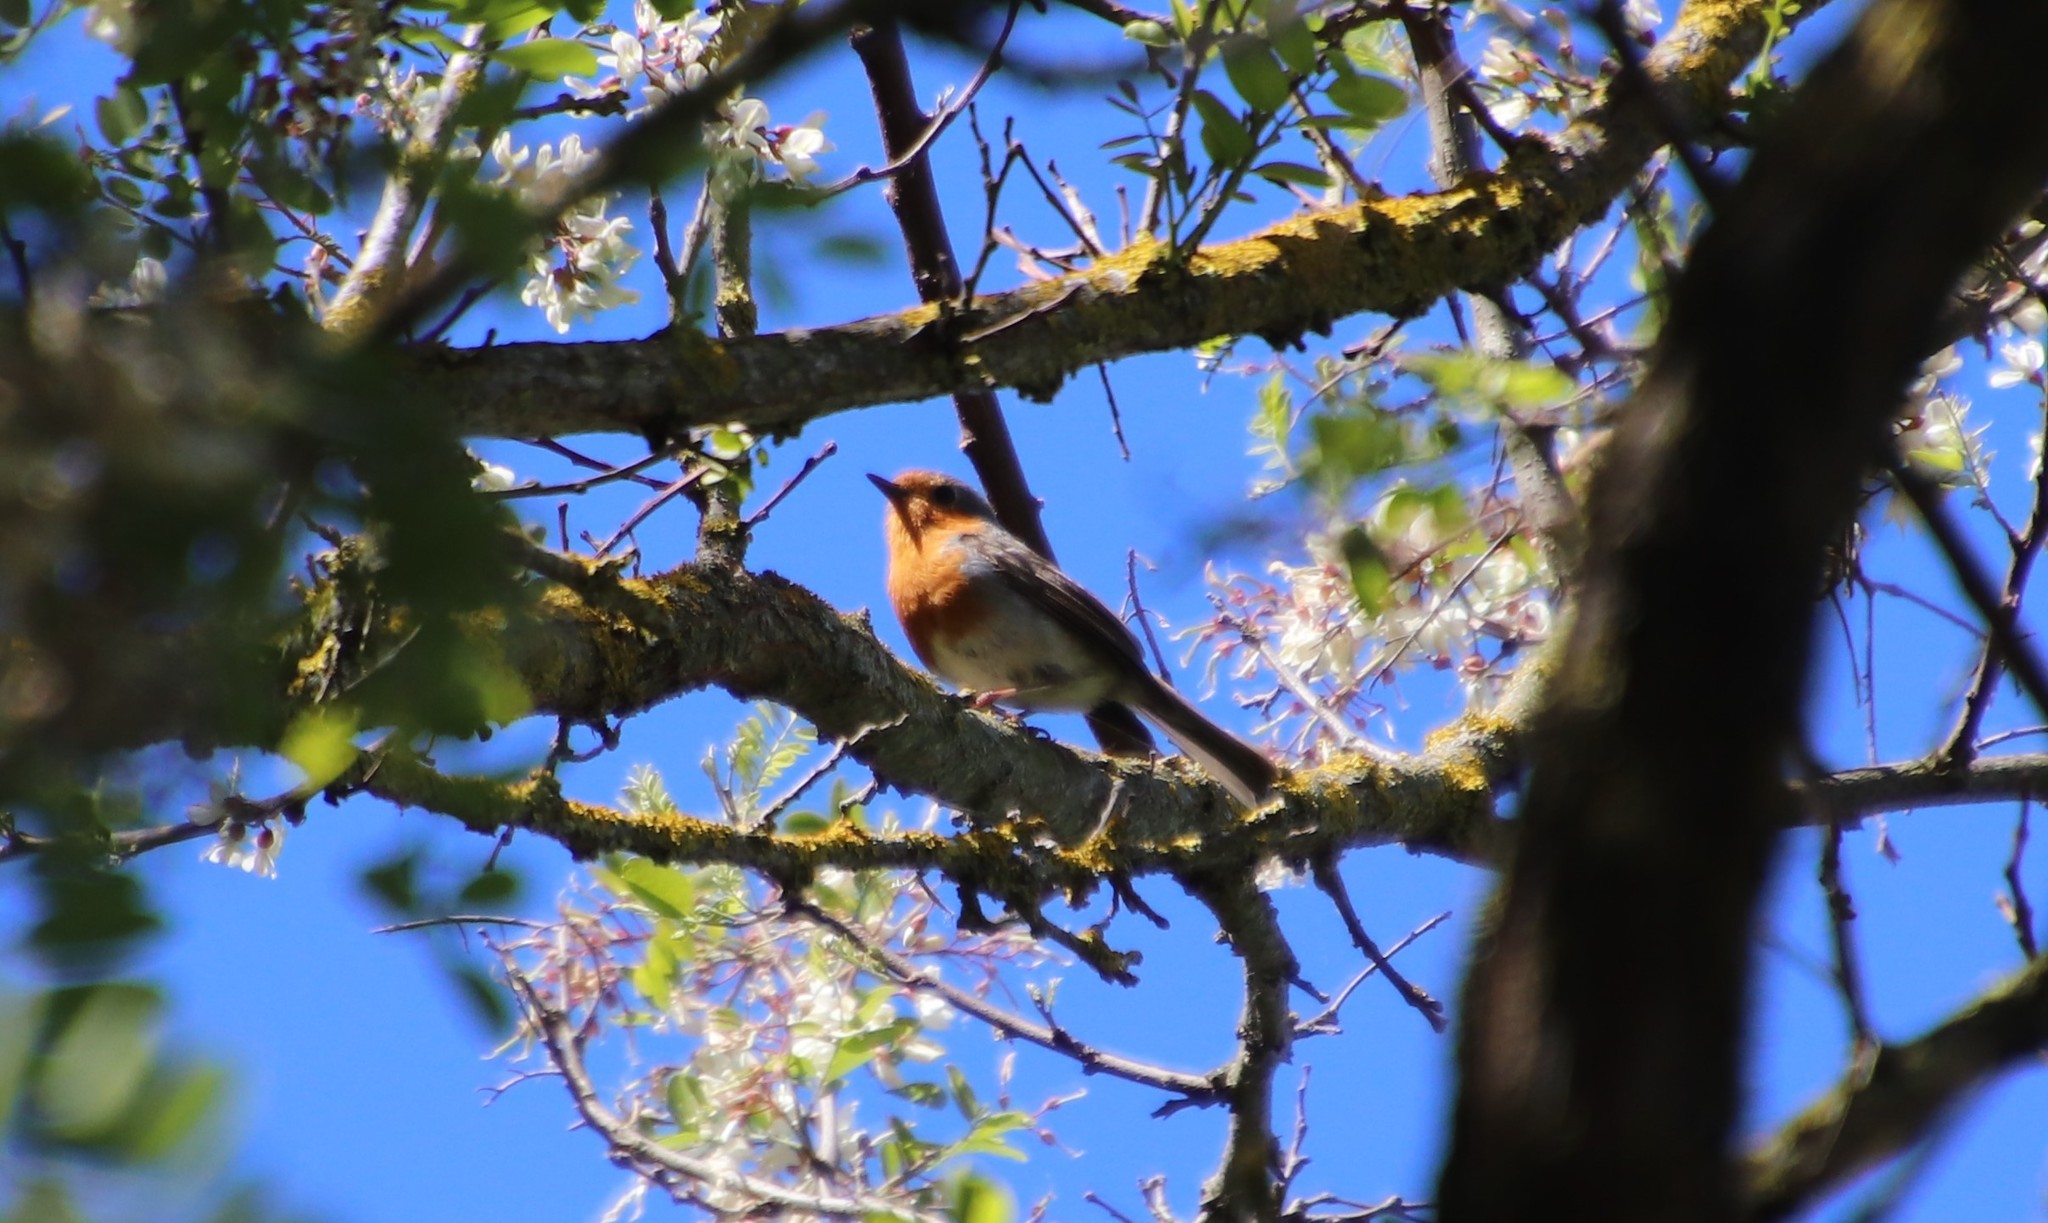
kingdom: Animalia
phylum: Chordata
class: Aves
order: Passeriformes
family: Muscicapidae
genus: Erithacus
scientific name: Erithacus rubecula
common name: European robin
